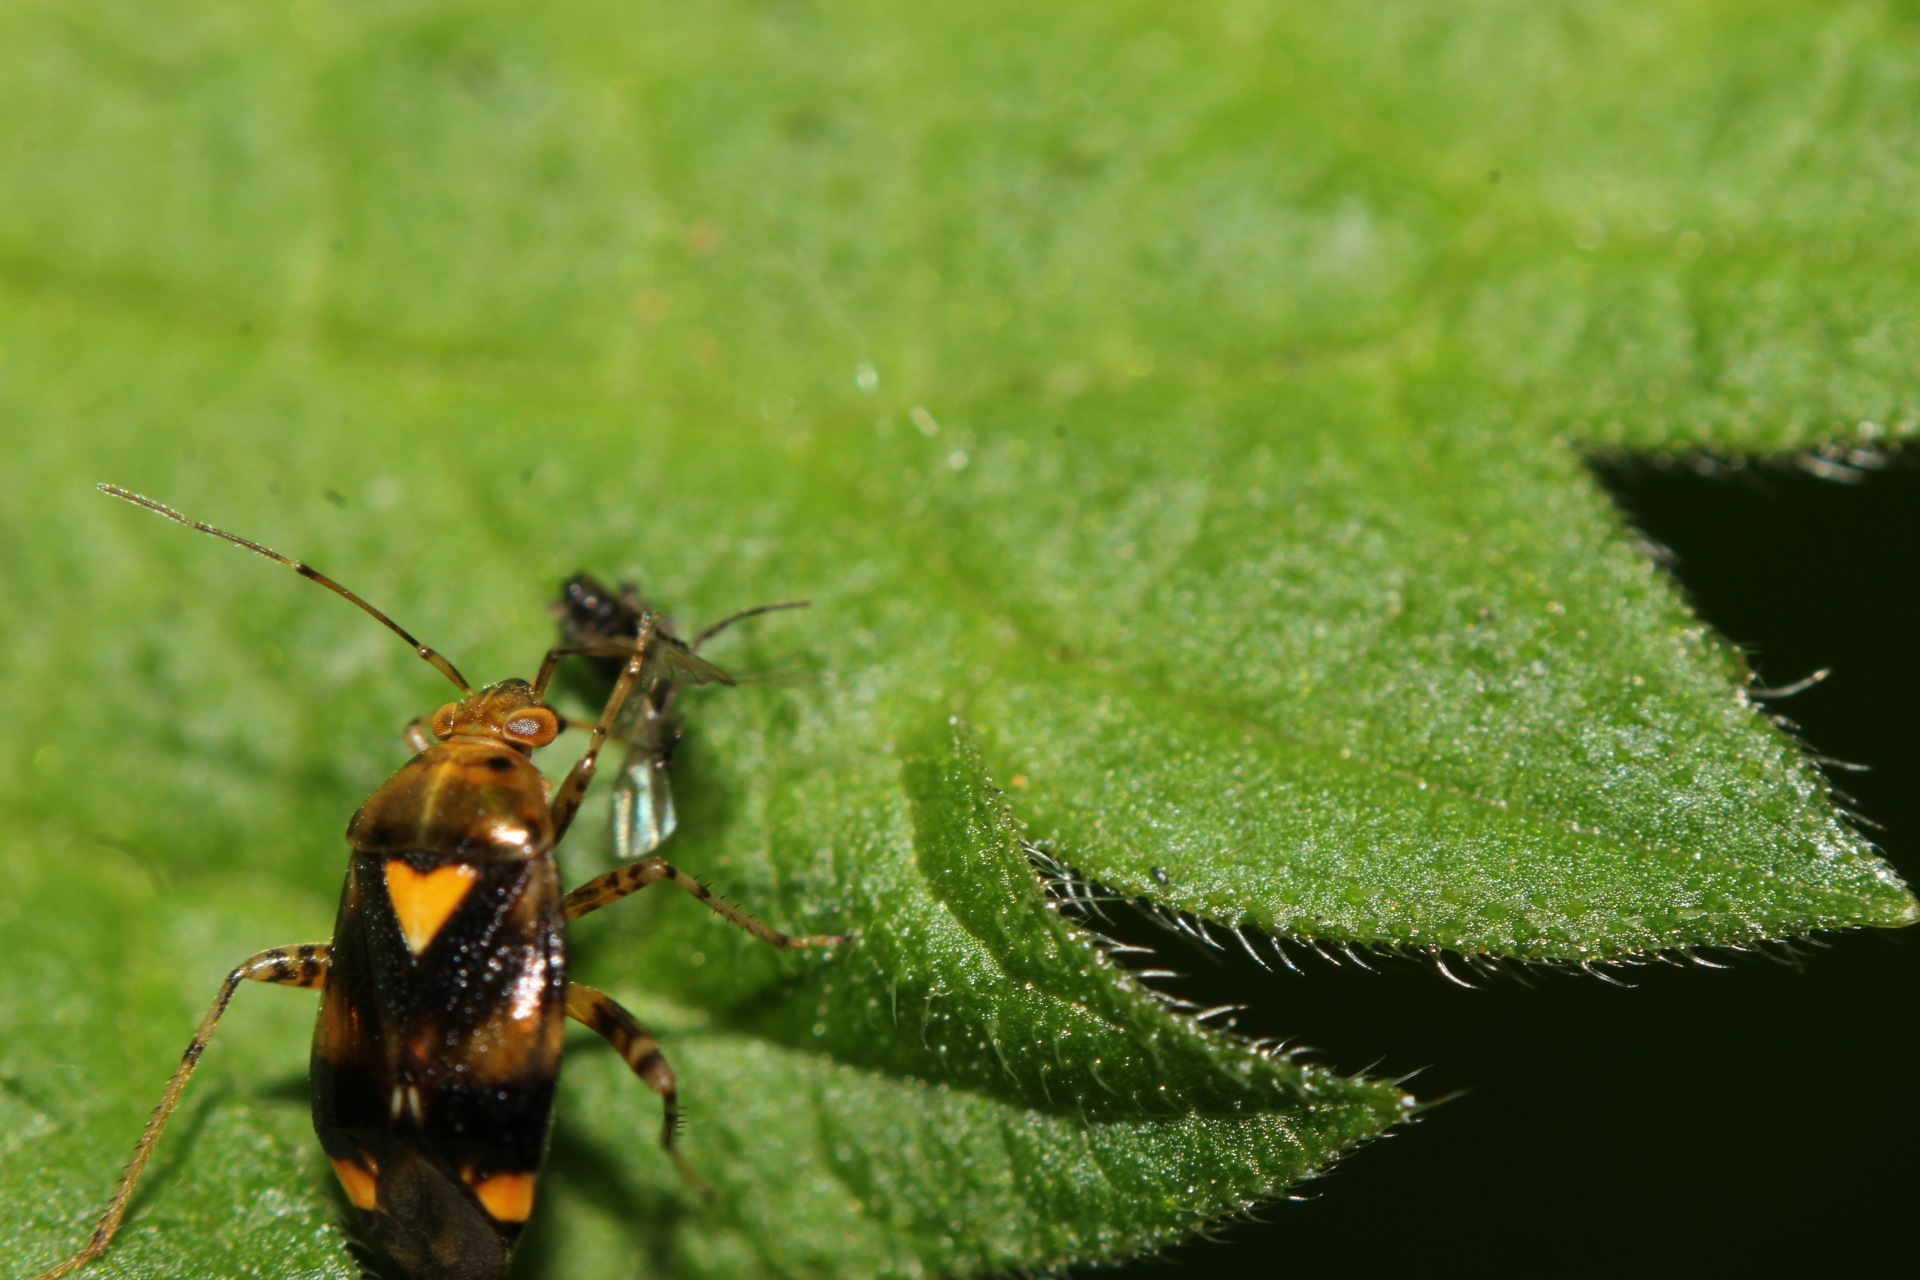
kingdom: Animalia
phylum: Arthropoda
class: Insecta
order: Hemiptera
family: Miridae
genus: Liocoris
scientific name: Liocoris tripustulatus
